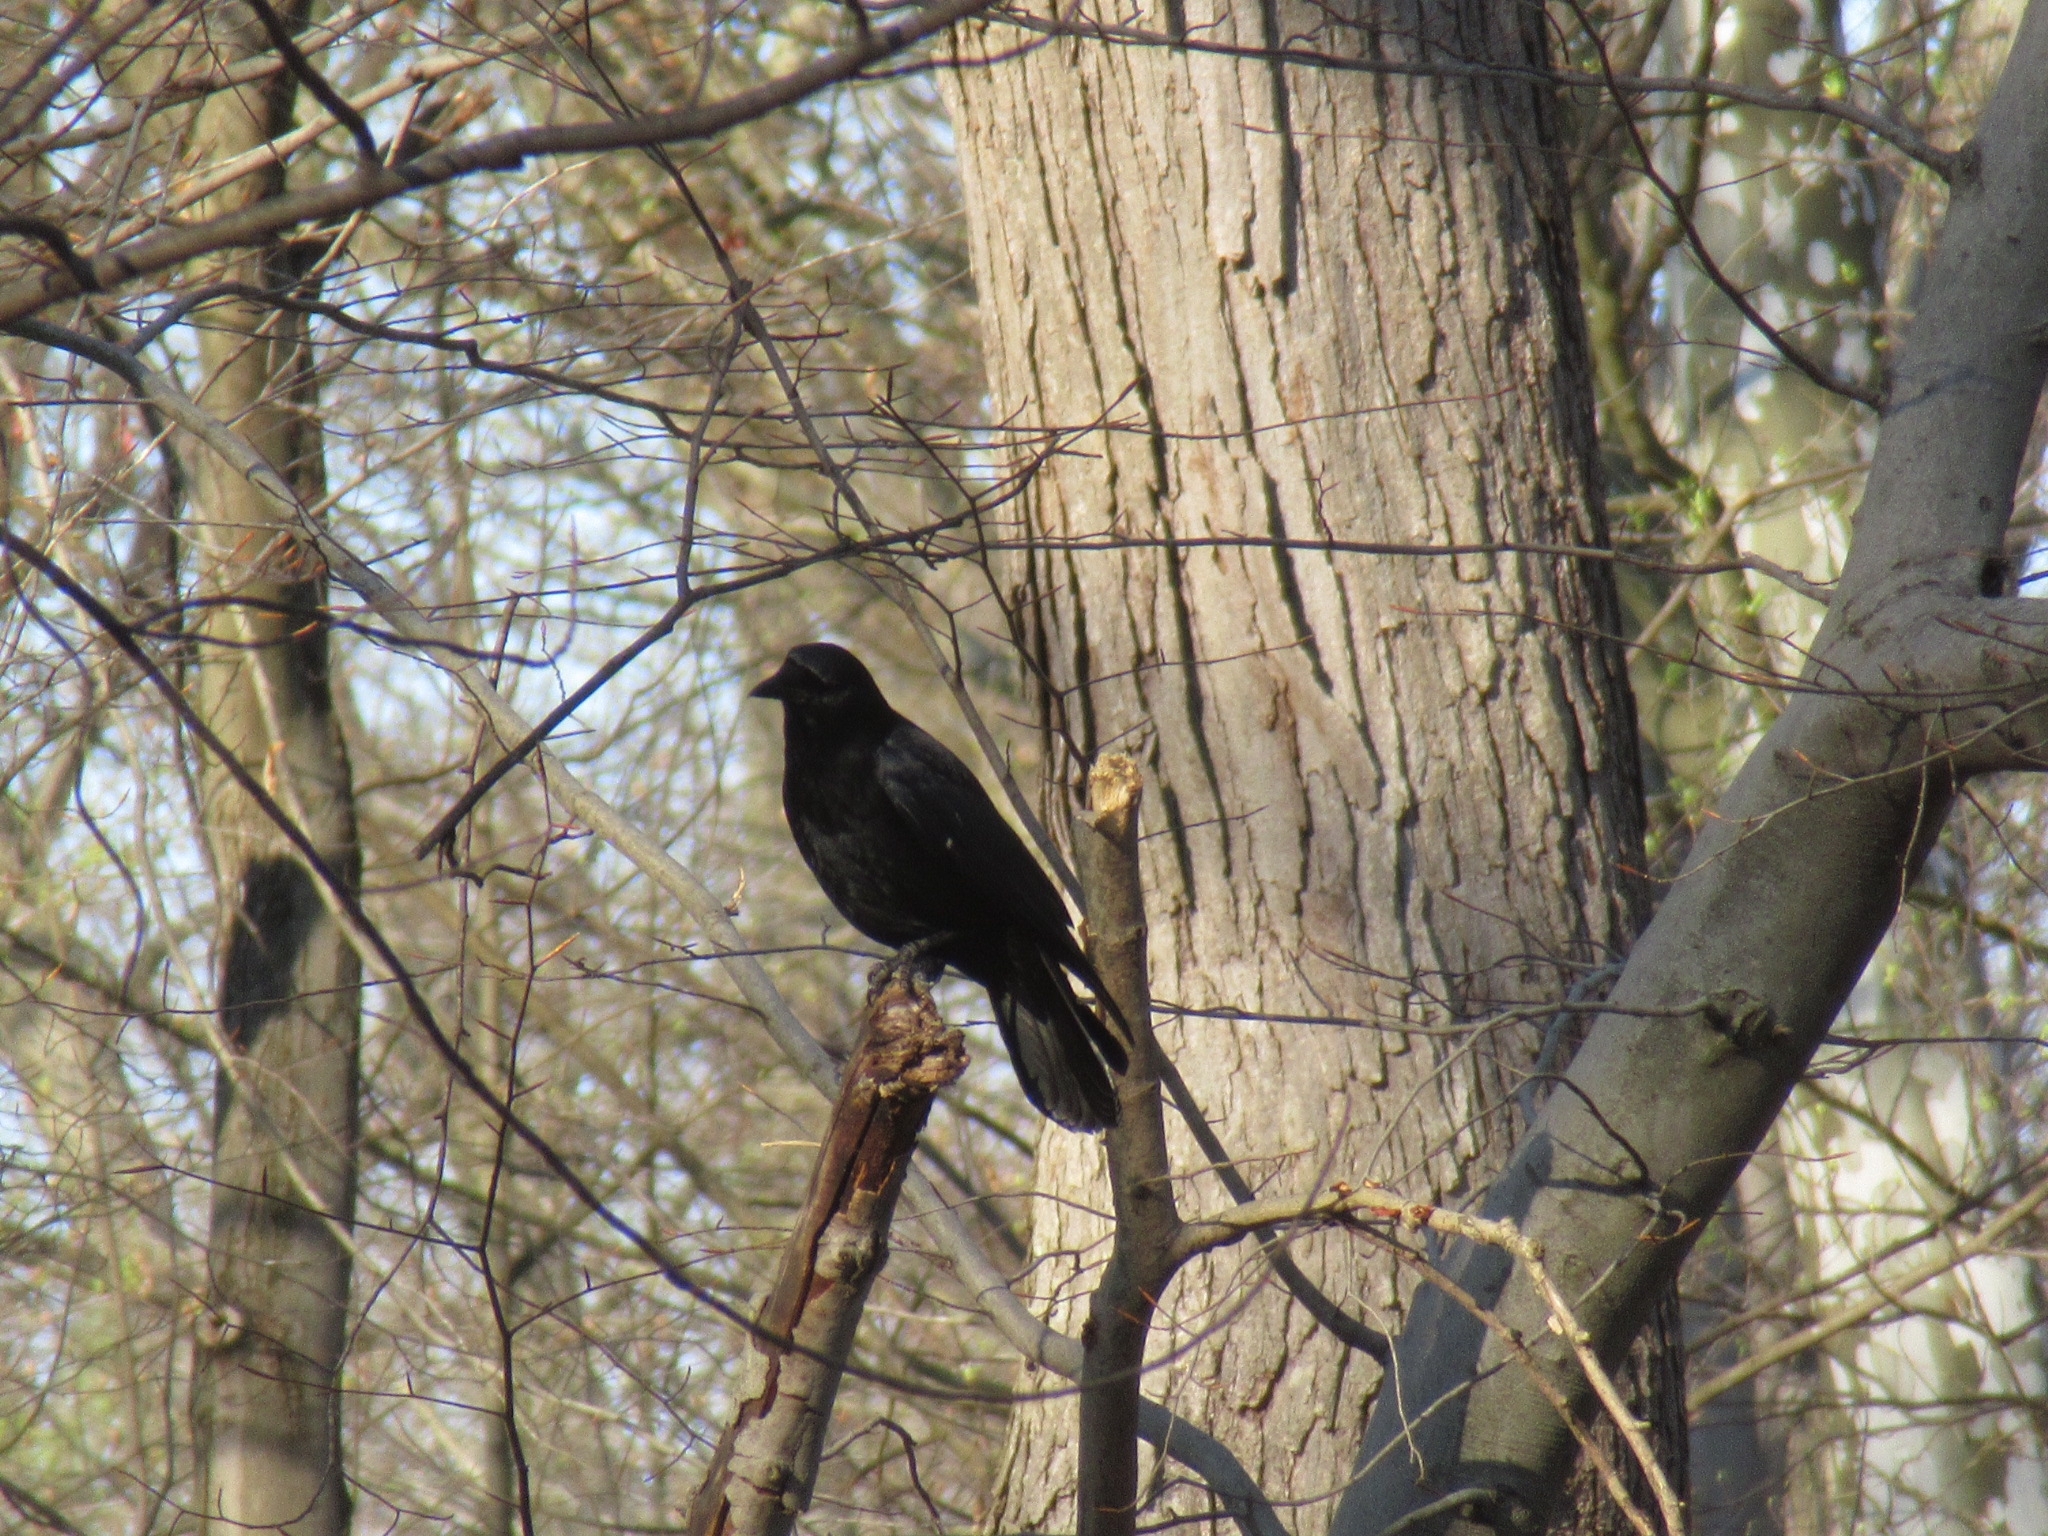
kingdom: Animalia
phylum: Chordata
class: Aves
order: Passeriformes
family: Corvidae
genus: Corvus
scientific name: Corvus brachyrhynchos
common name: American crow
